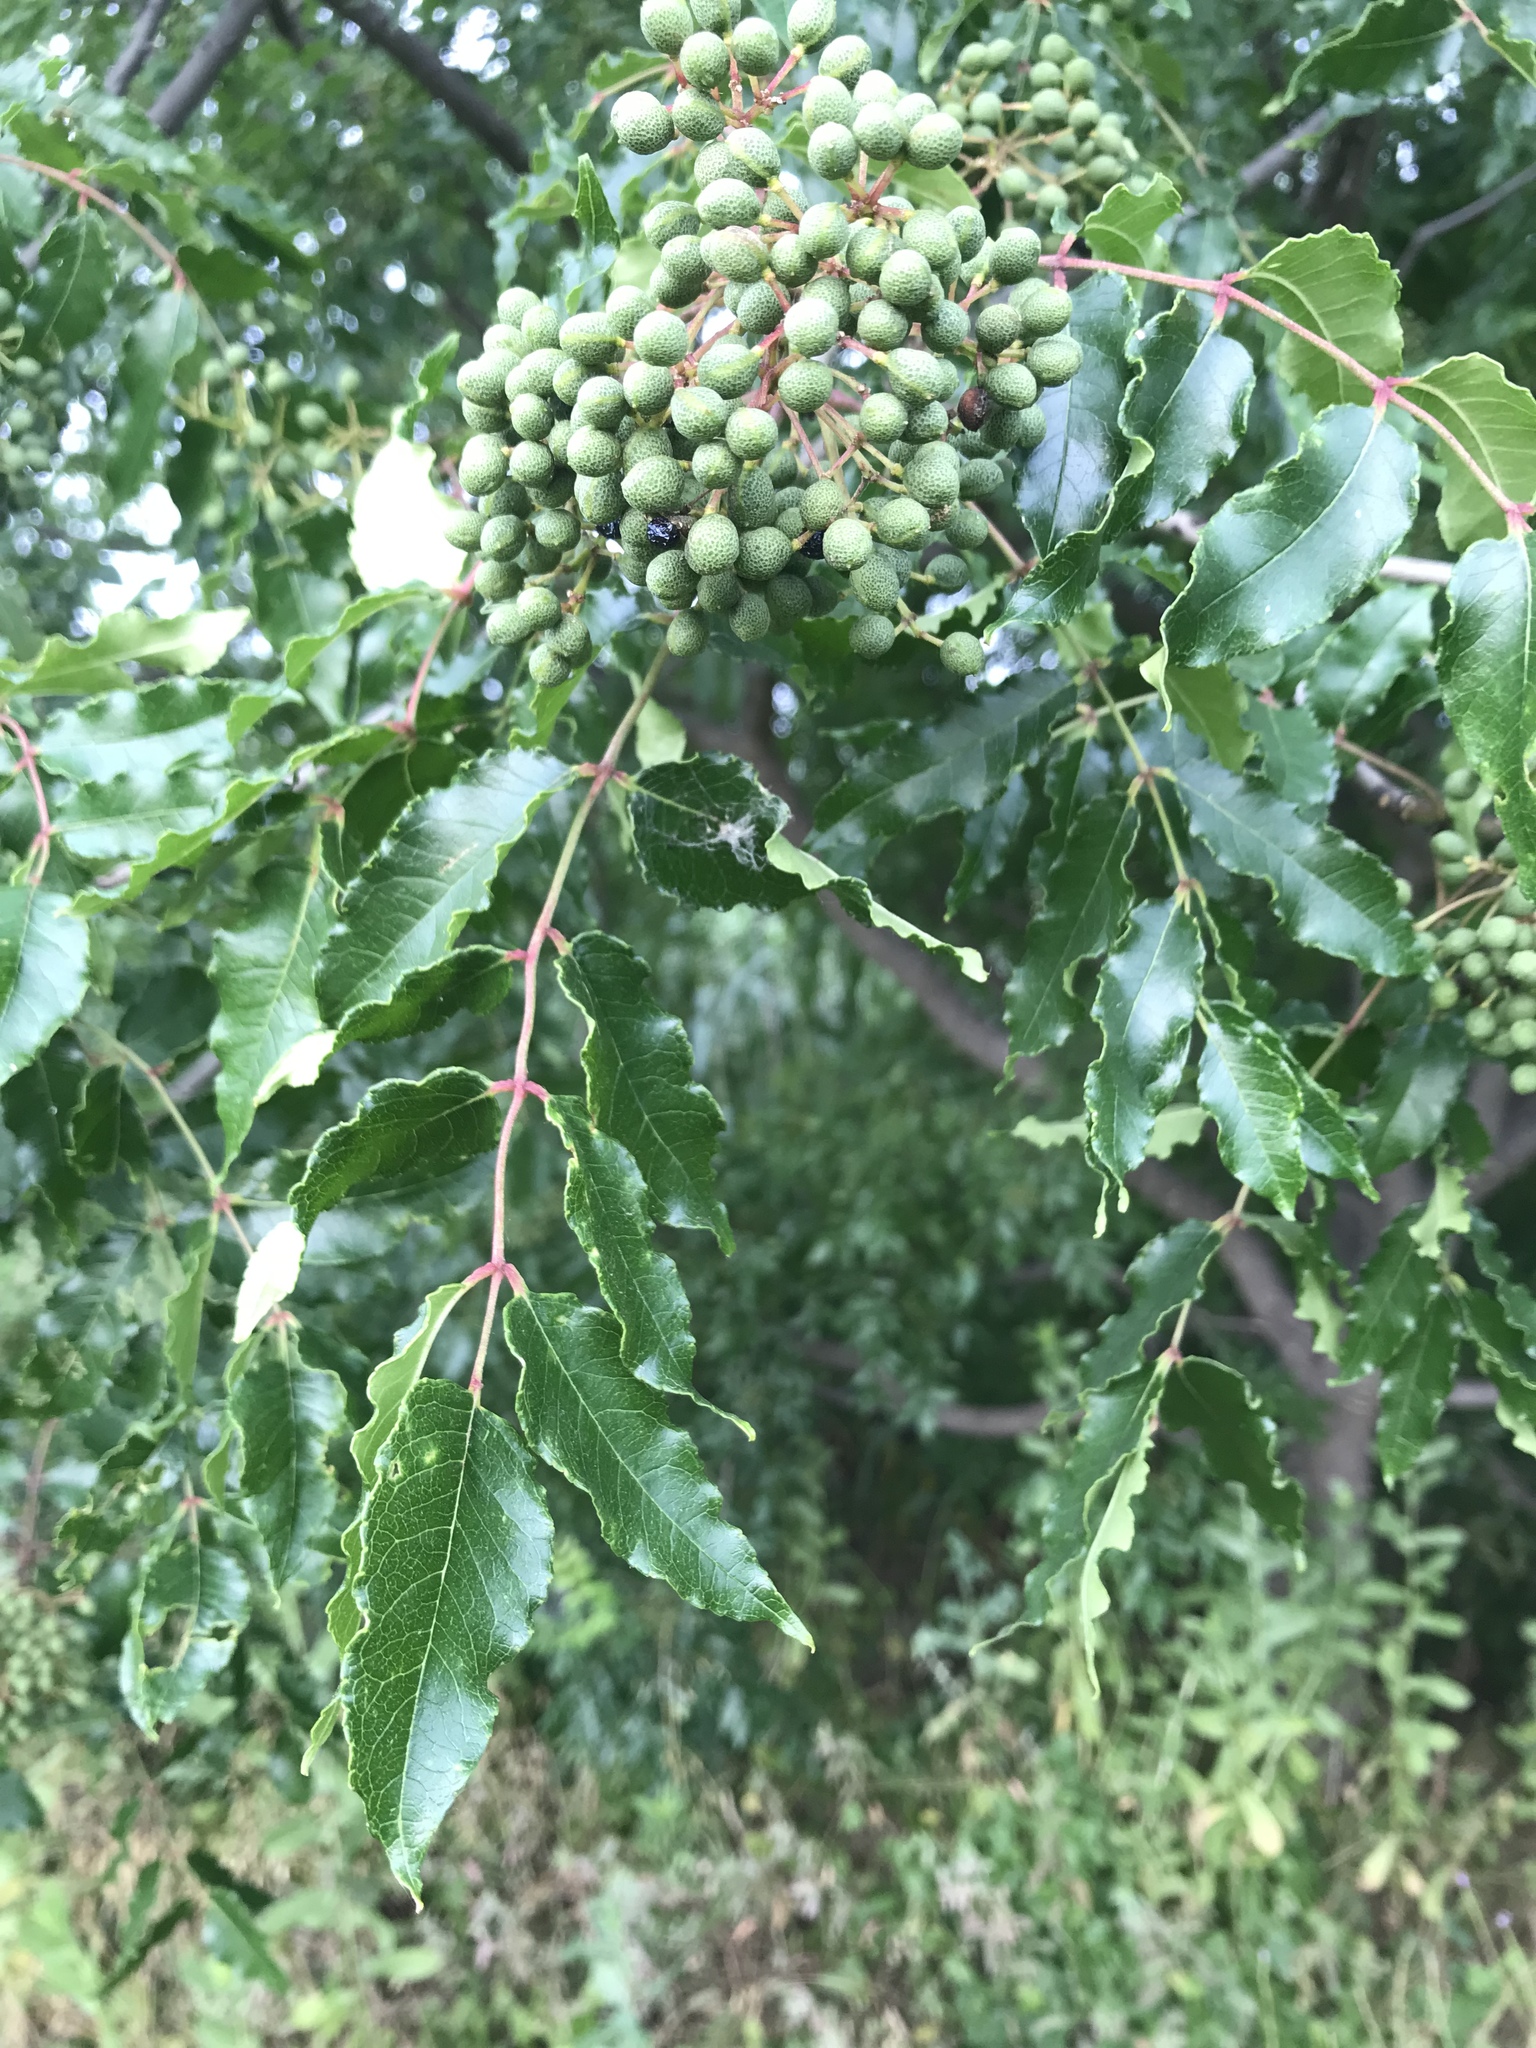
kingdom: Plantae
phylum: Tracheophyta
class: Magnoliopsida
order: Sapindales
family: Rutaceae
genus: Zanthoxylum
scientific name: Zanthoxylum clava-herculis
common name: Hercules'-club
